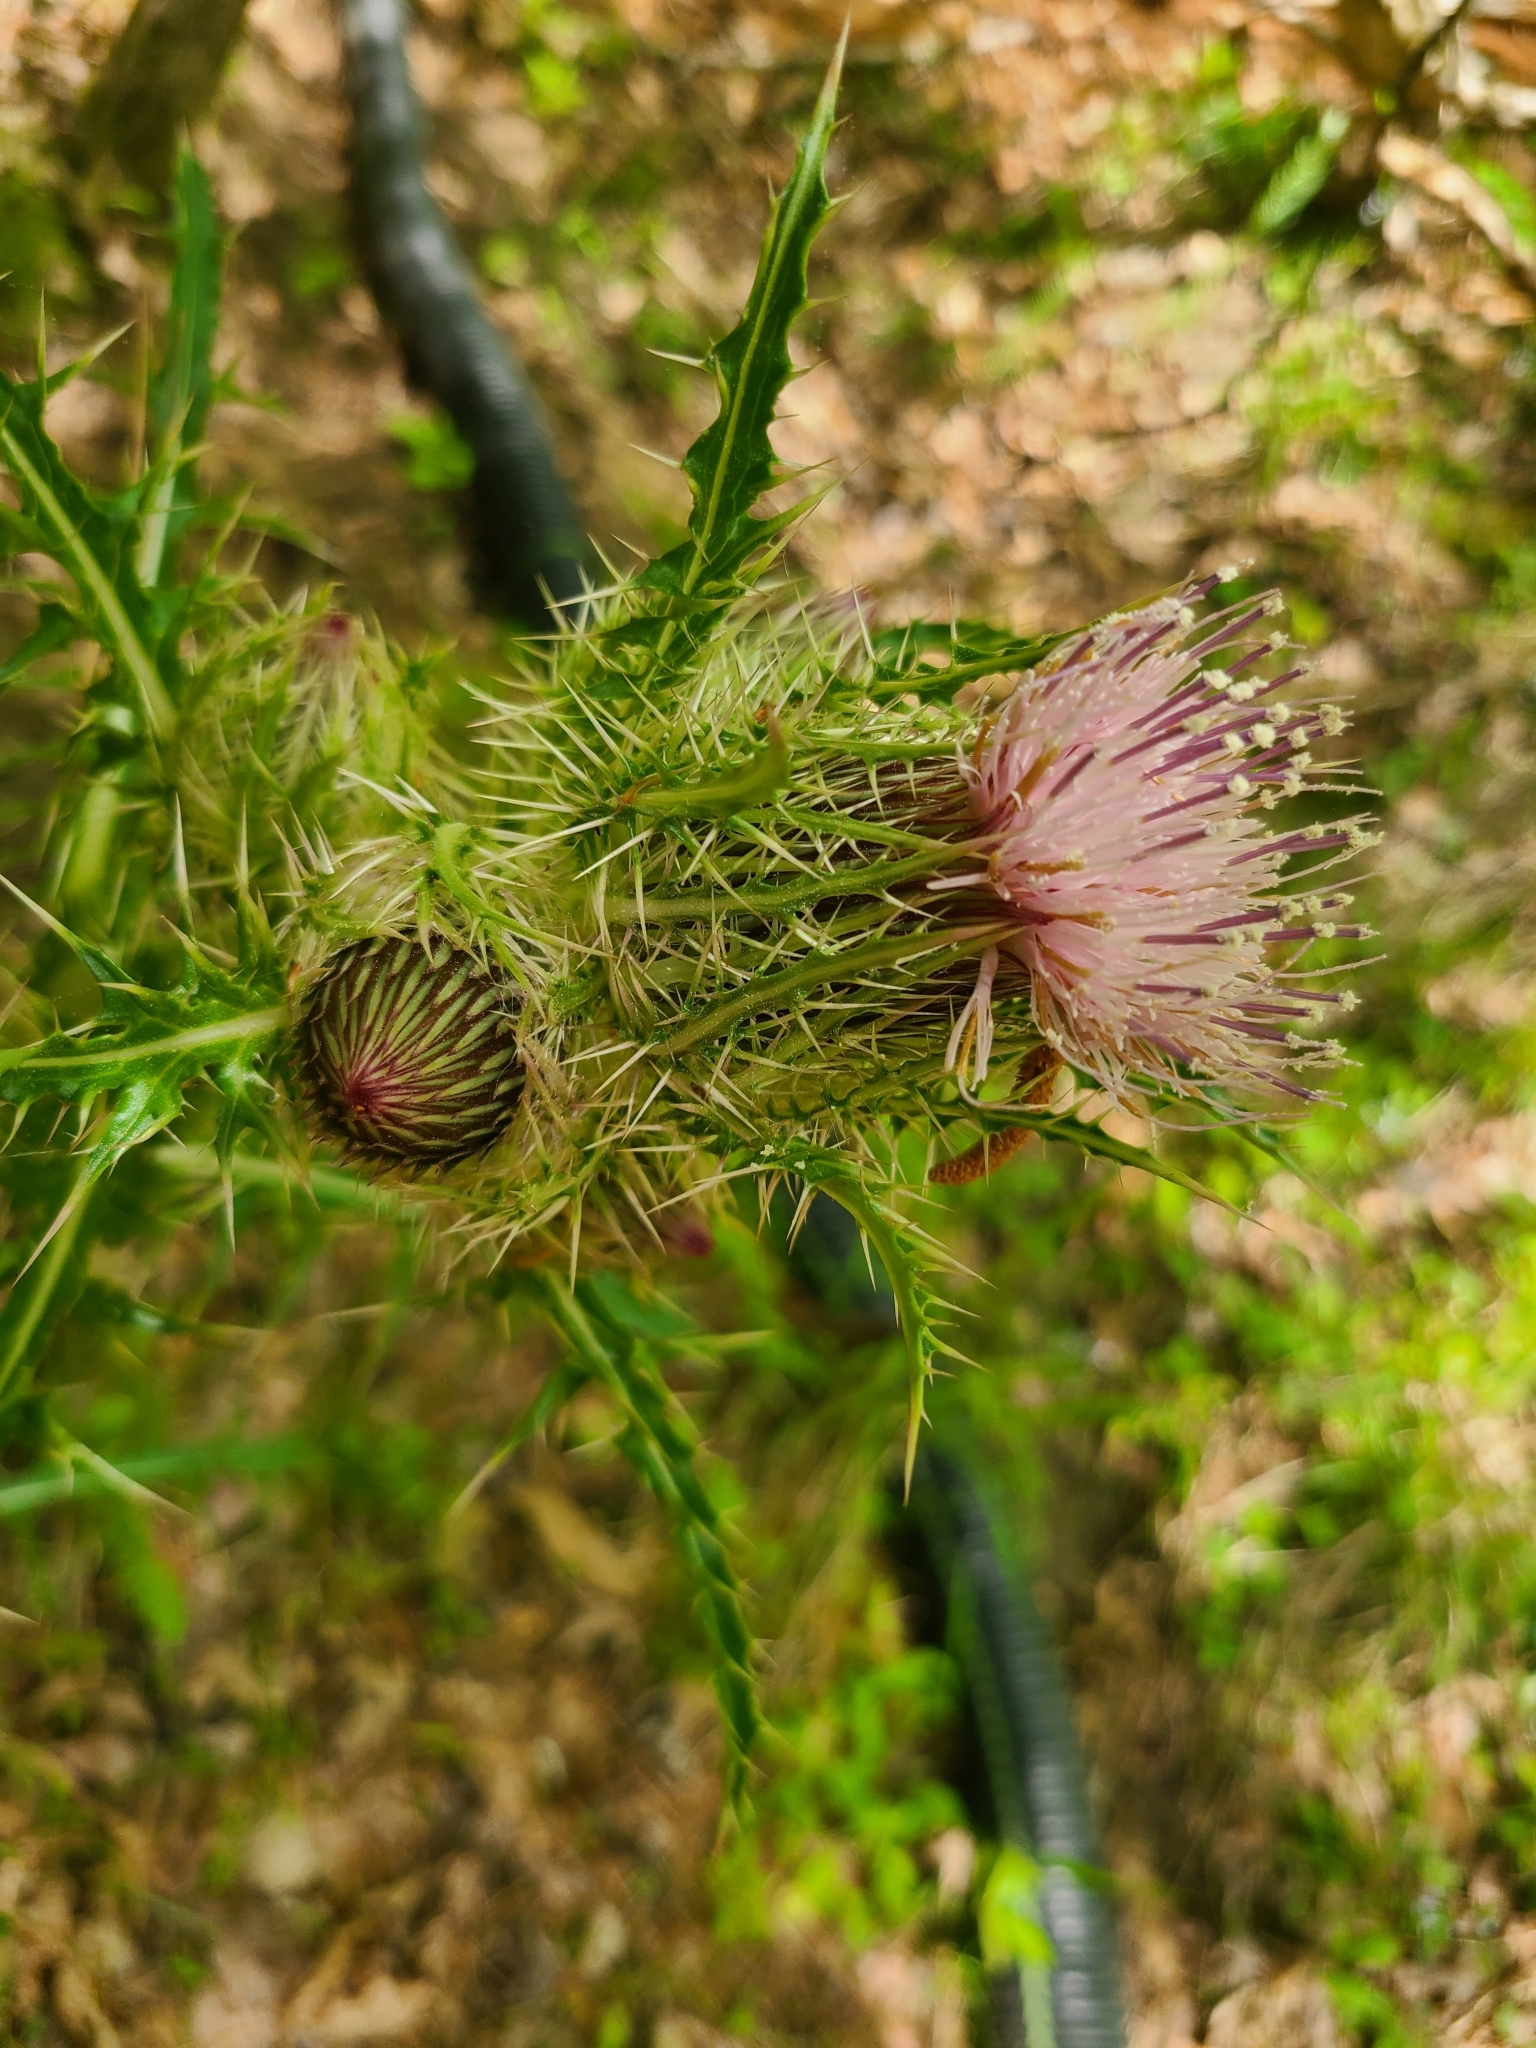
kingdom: Plantae
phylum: Tracheophyta
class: Magnoliopsida
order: Asterales
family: Asteraceae
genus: Cirsium
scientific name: Cirsium horridulum
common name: Bristly thistle
